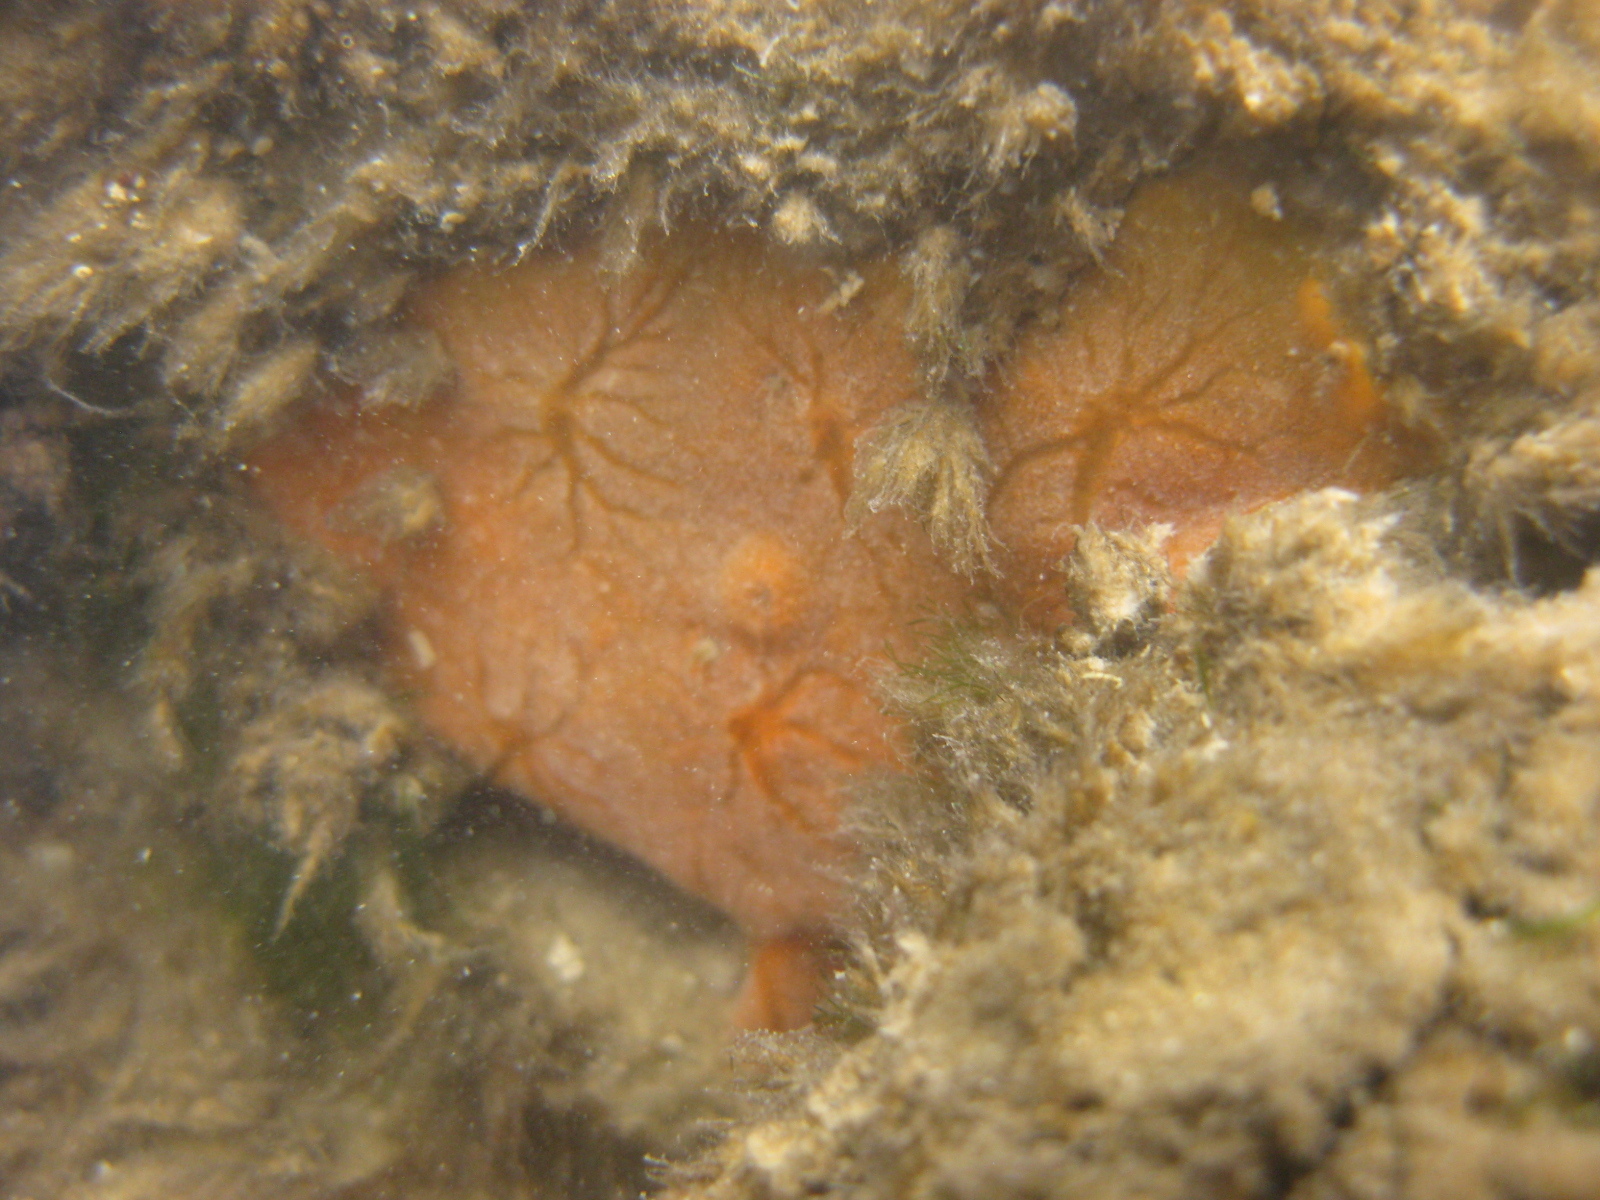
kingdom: Animalia
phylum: Porifera
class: Demospongiae
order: Tethyida
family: Timeidae
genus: Timea
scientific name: Timea aurantiaca
